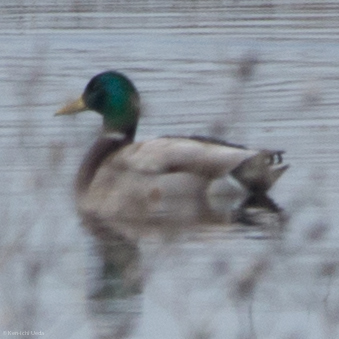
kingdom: Animalia
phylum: Chordata
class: Aves
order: Anseriformes
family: Anatidae
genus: Anas
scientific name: Anas platyrhynchos
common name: Mallard
